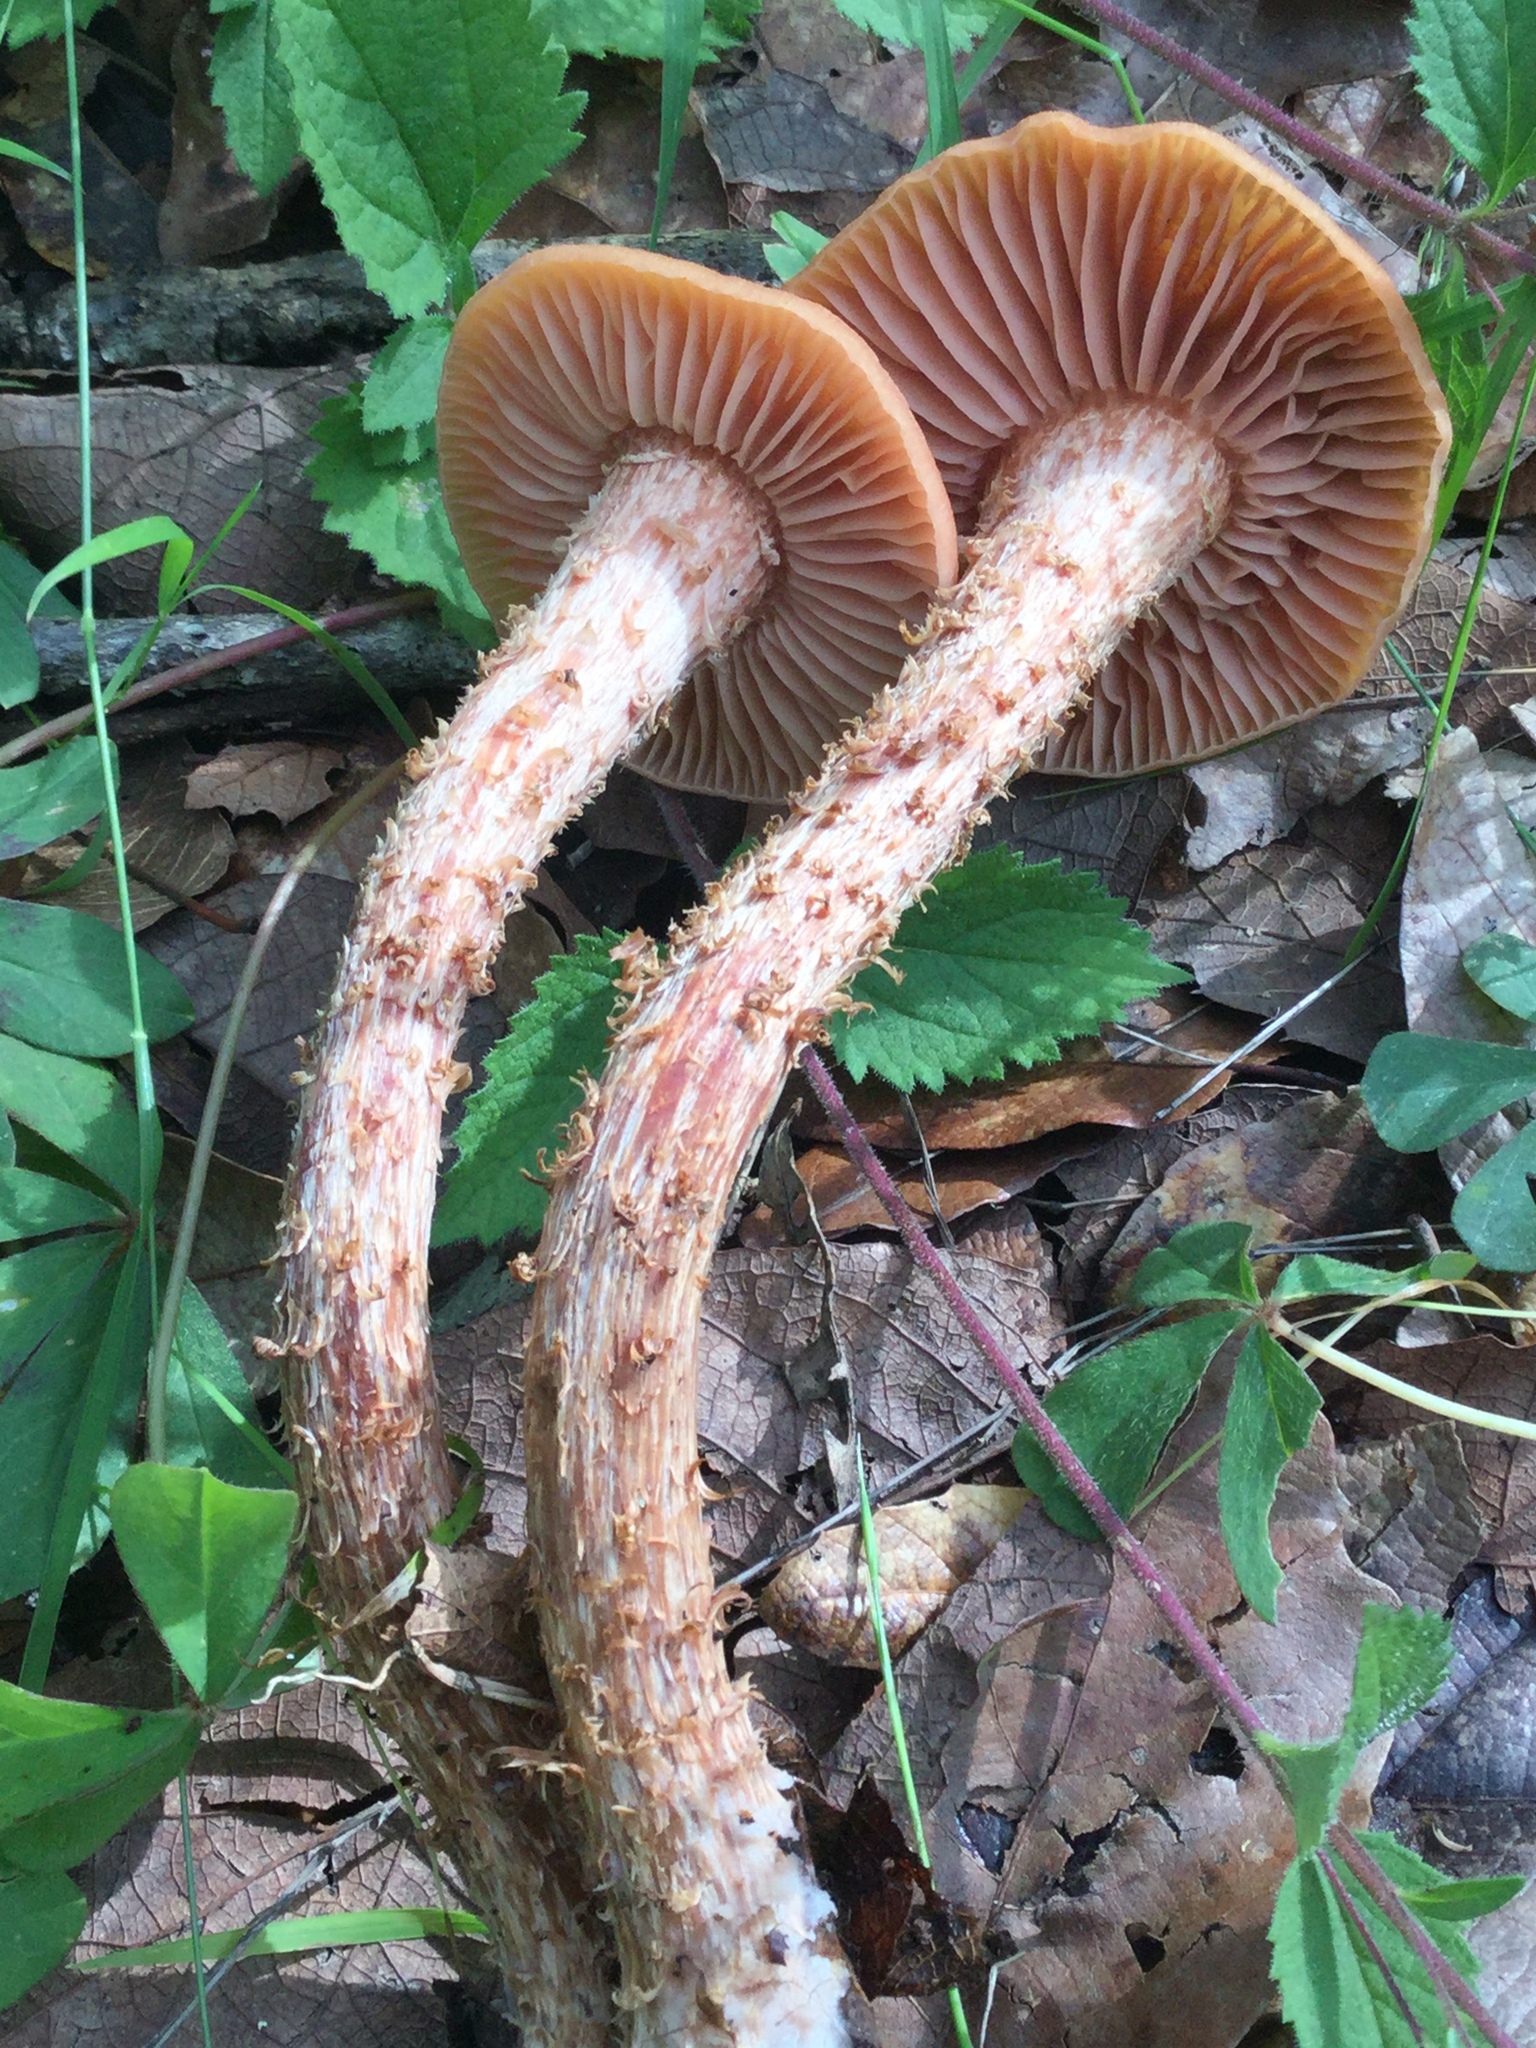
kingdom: Fungi
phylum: Basidiomycota
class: Agaricomycetes
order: Agaricales
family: Hydnangiaceae
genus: Laccaria
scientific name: Laccaria squarrosa
